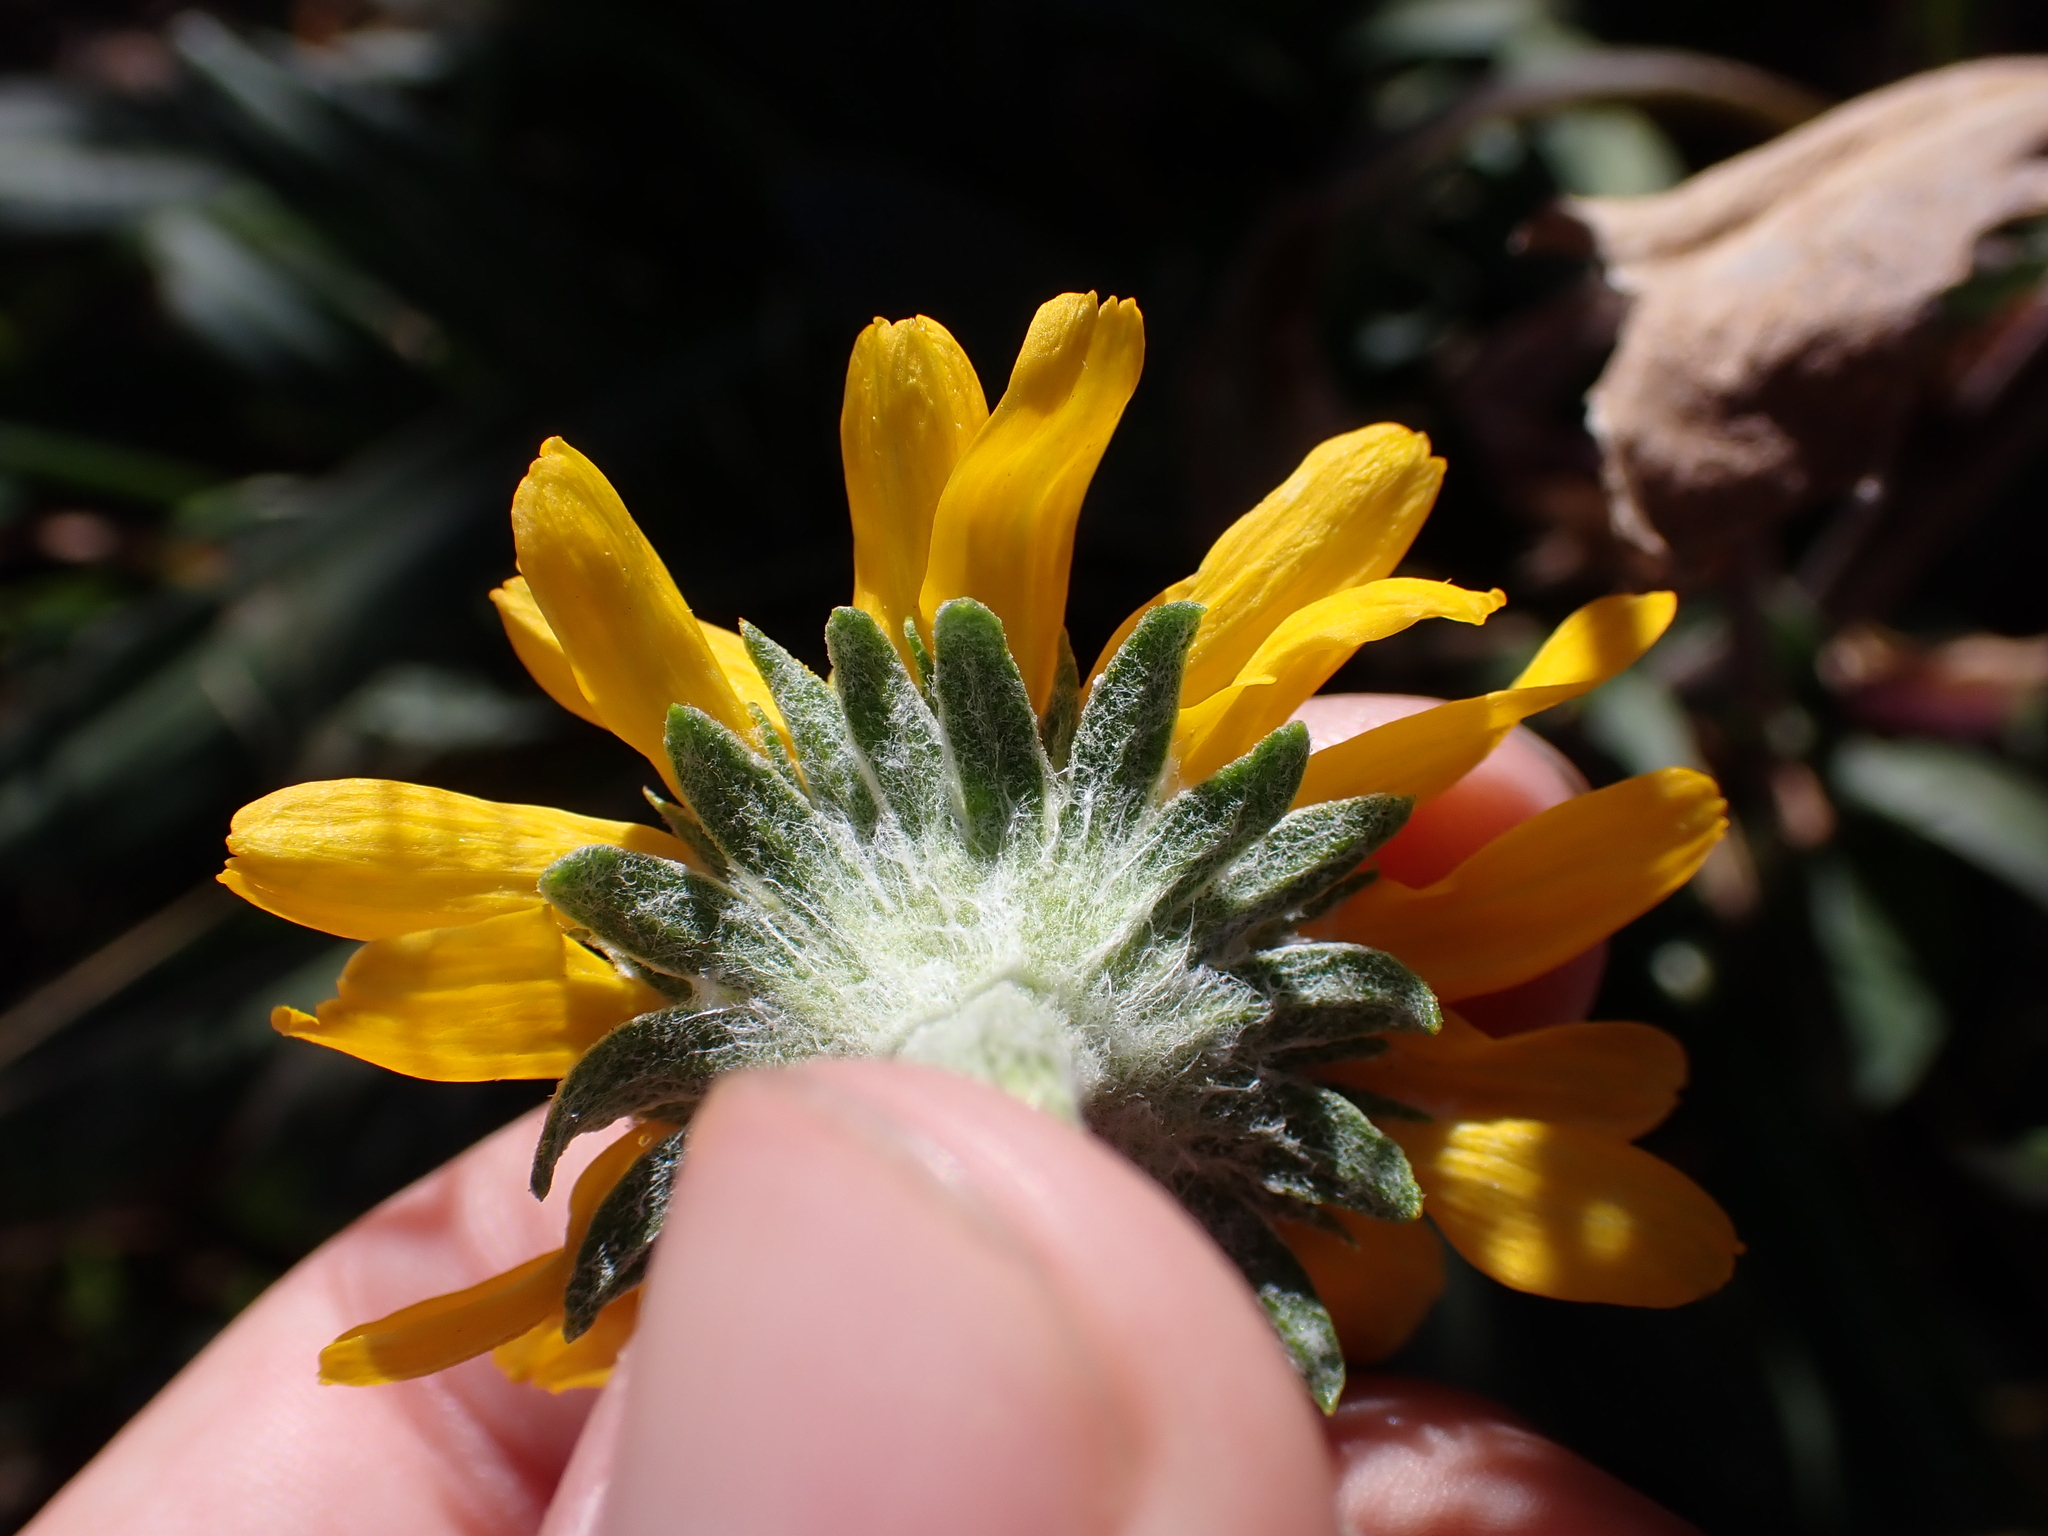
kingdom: Plantae
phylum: Tracheophyta
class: Magnoliopsida
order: Asterales
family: Asteraceae
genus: Hymenoxys
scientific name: Hymenoxys hoopesii
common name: Orange-sneezeweed
